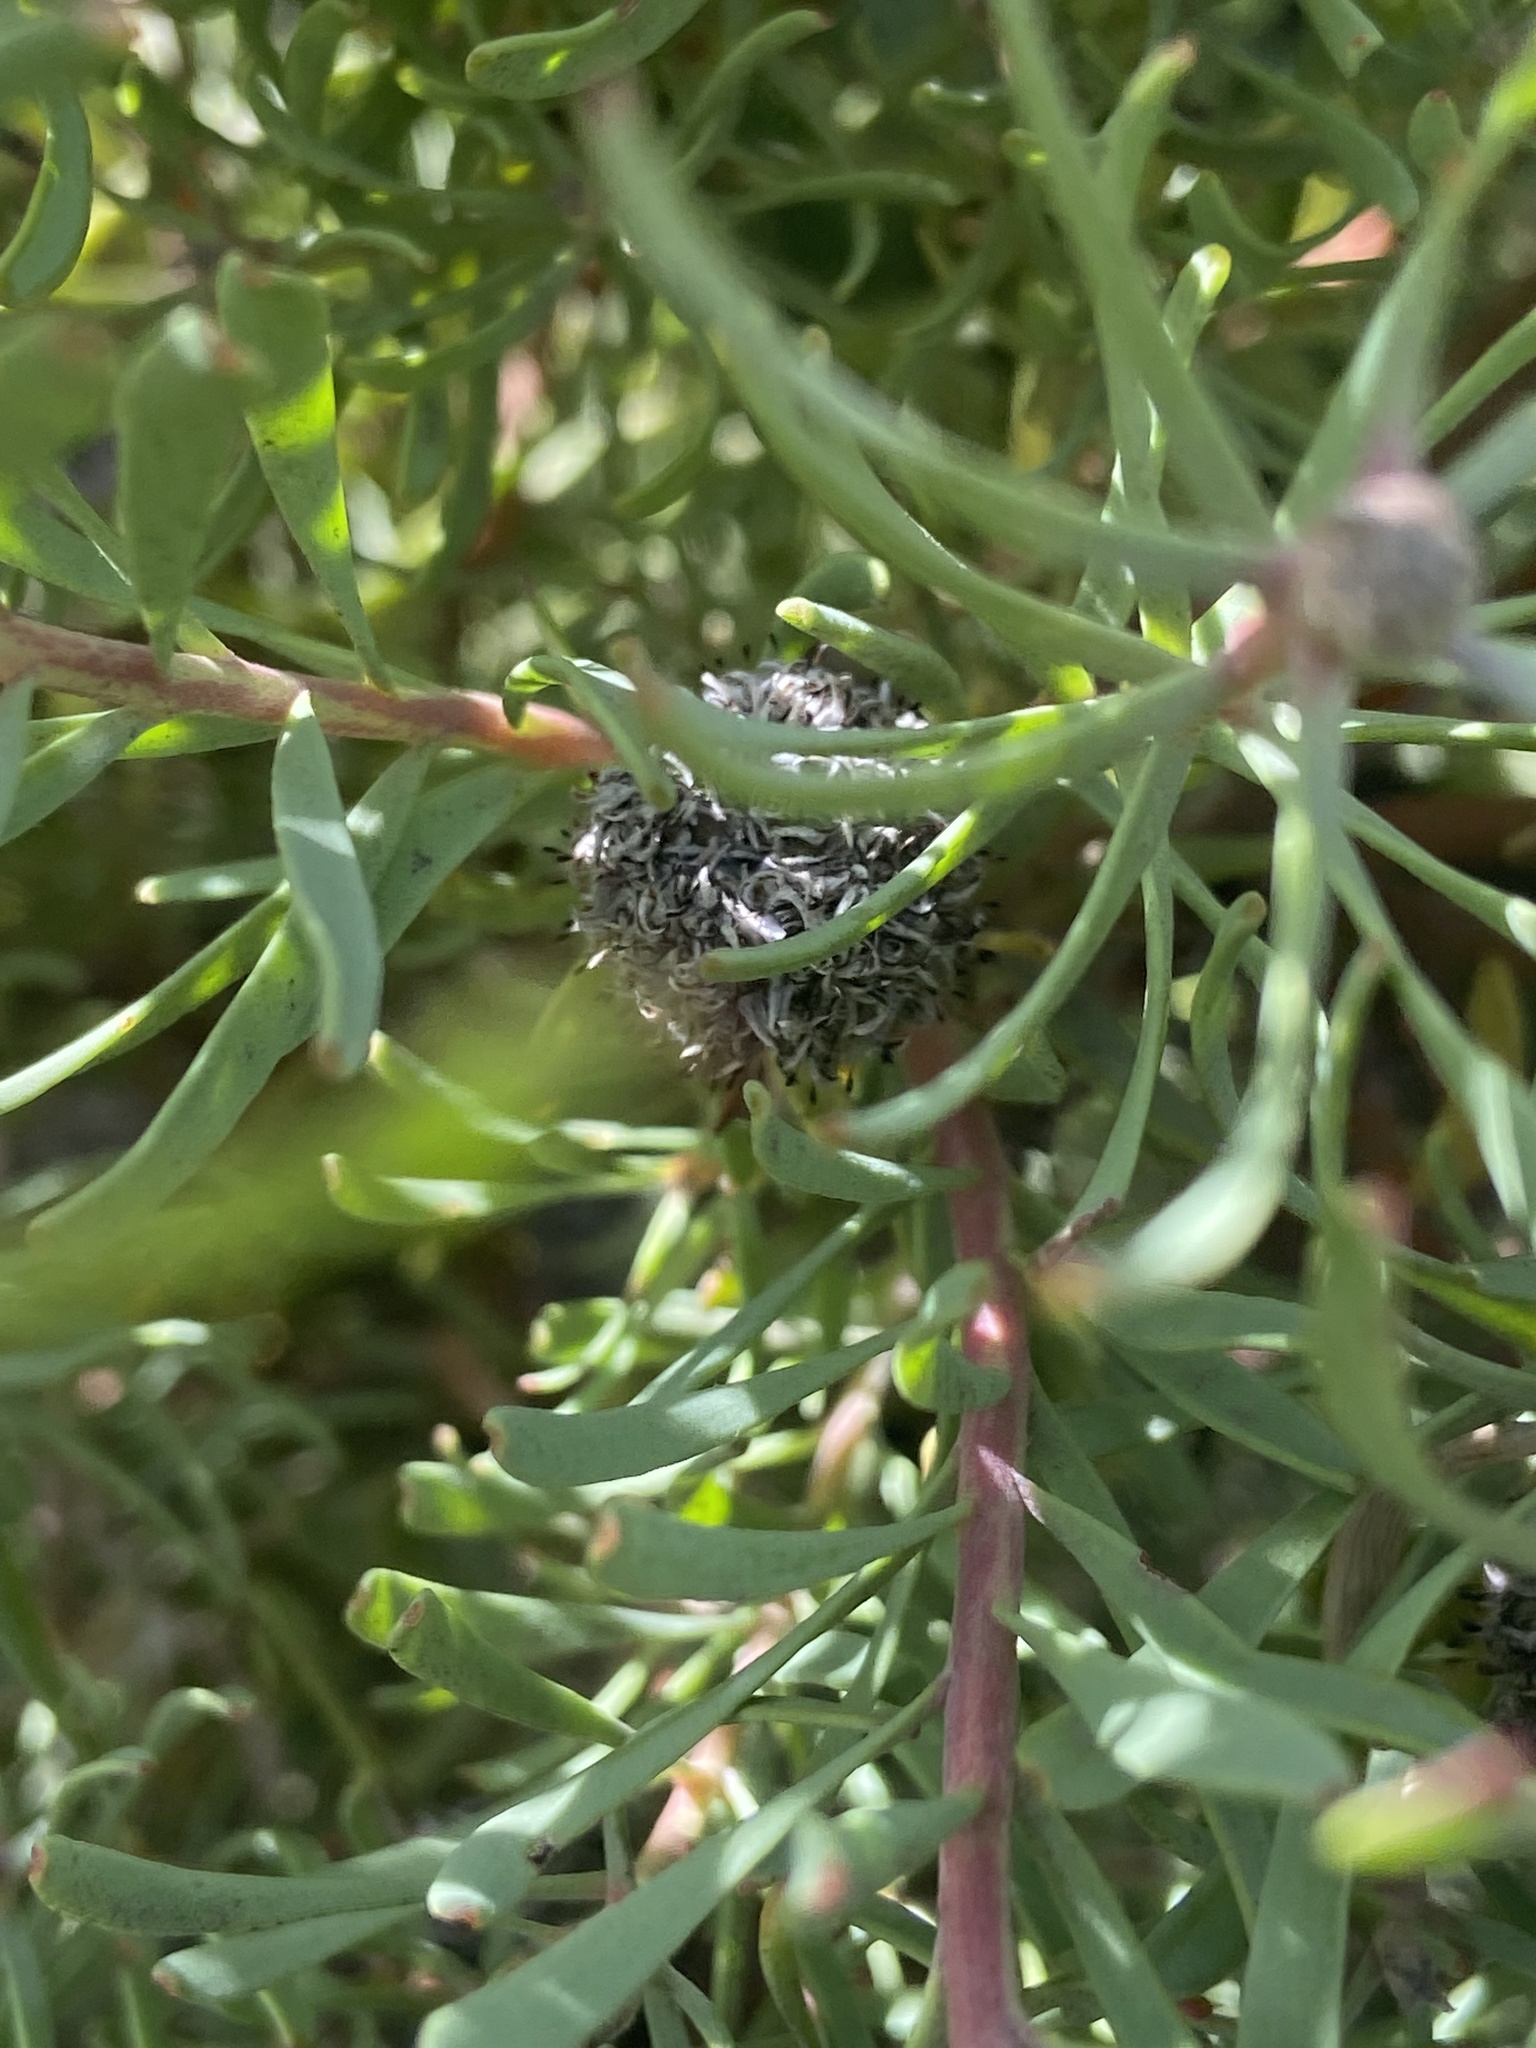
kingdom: Plantae
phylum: Tracheophyta
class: Magnoliopsida
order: Proteales
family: Proteaceae
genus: Leucadendron
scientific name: Leucadendron galpinii
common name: Hairless conebush
